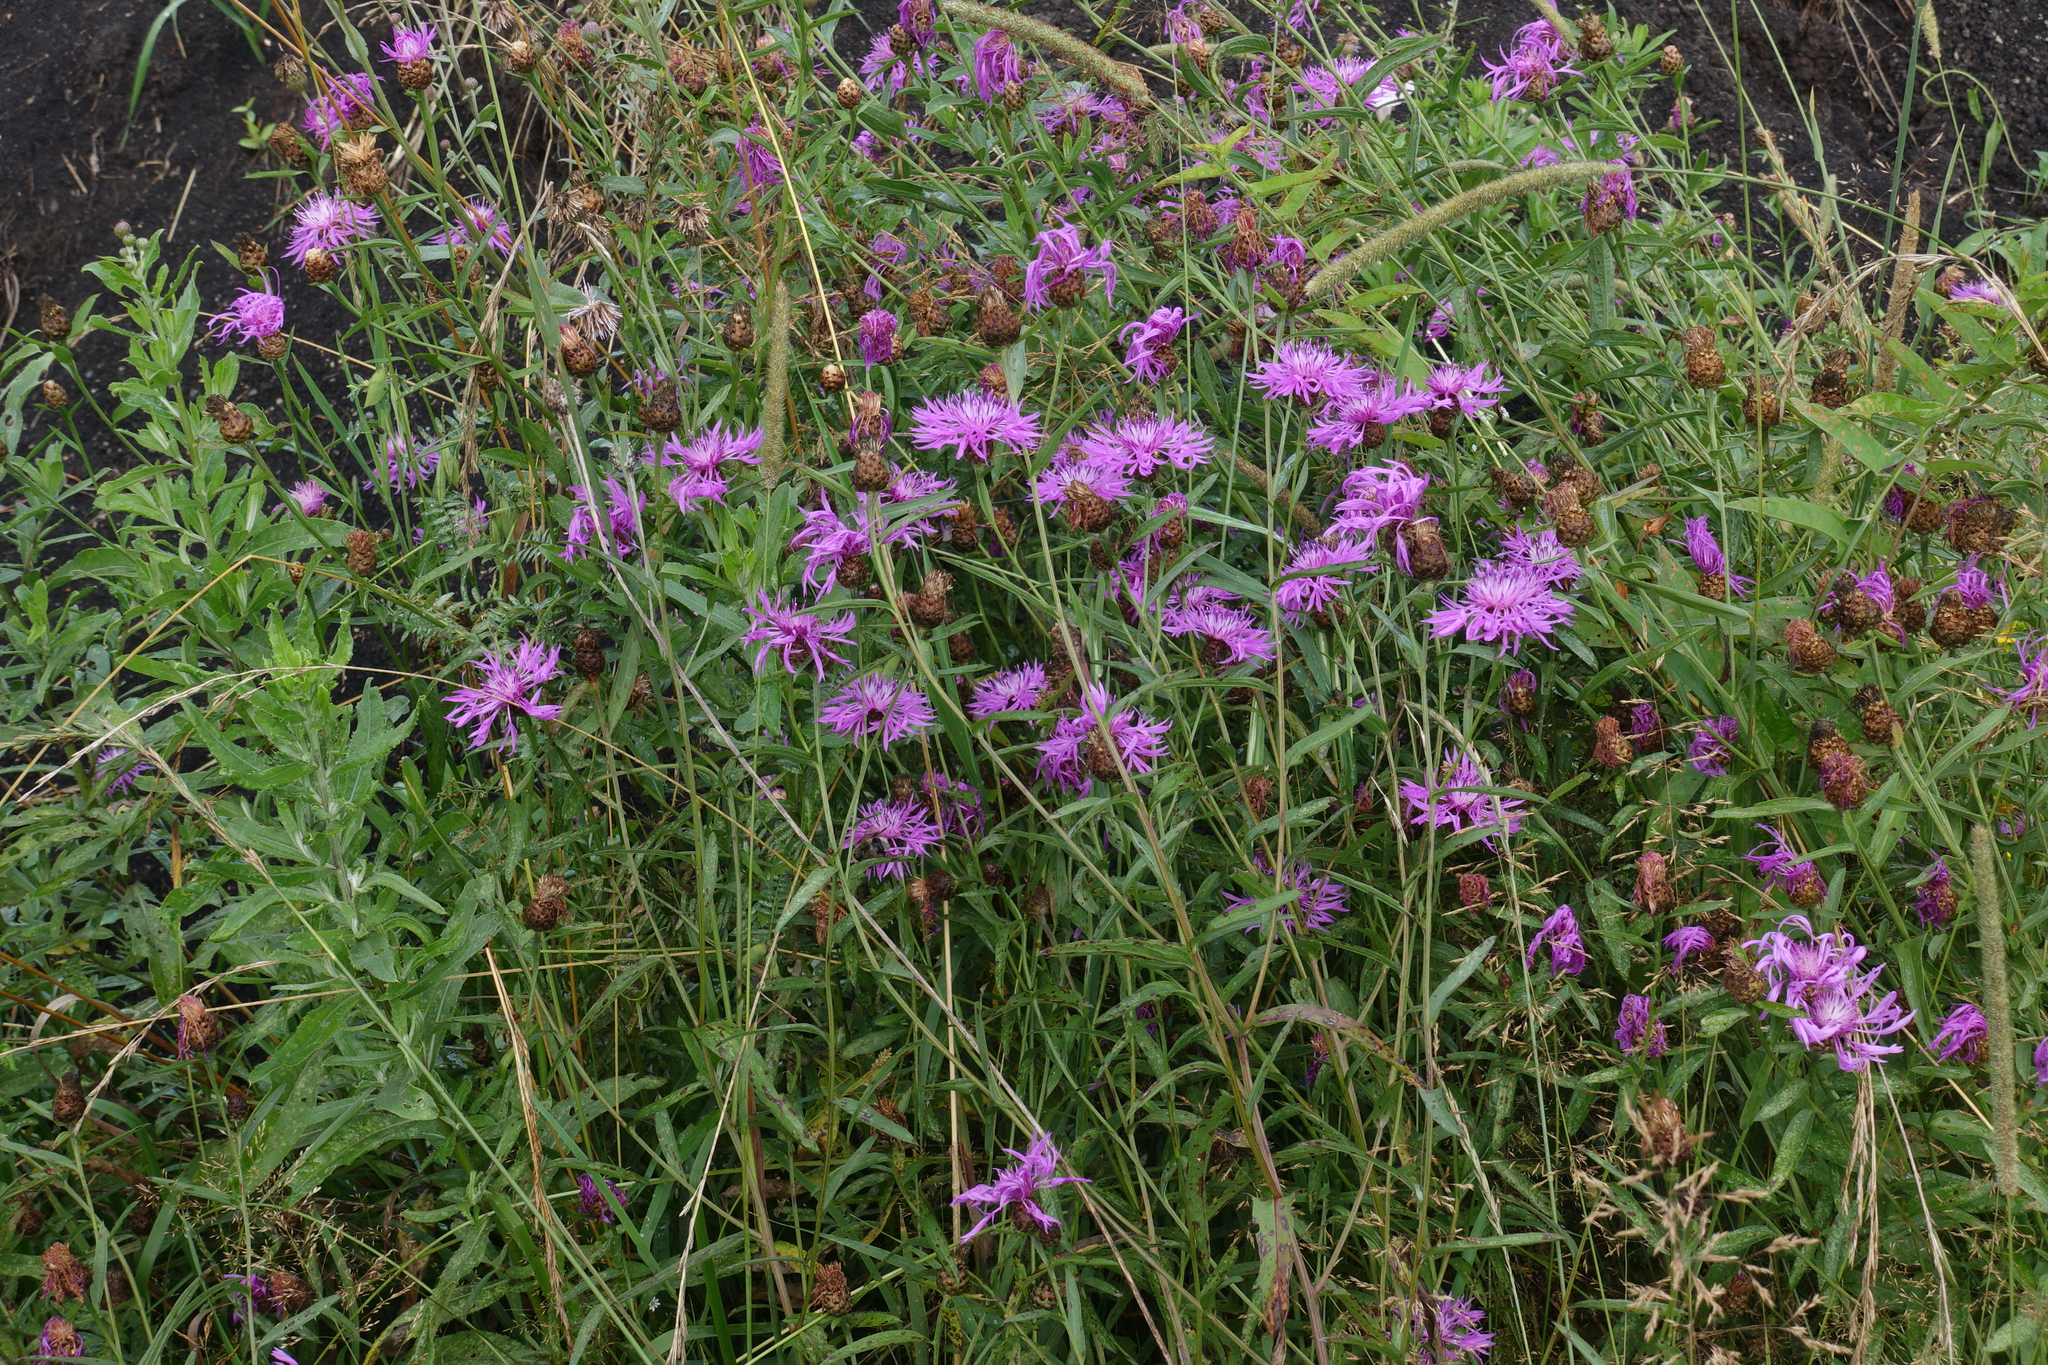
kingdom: Plantae
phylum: Tracheophyta
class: Magnoliopsida
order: Asterales
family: Asteraceae
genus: Centaurea
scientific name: Centaurea jacea
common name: Brown knapweed
